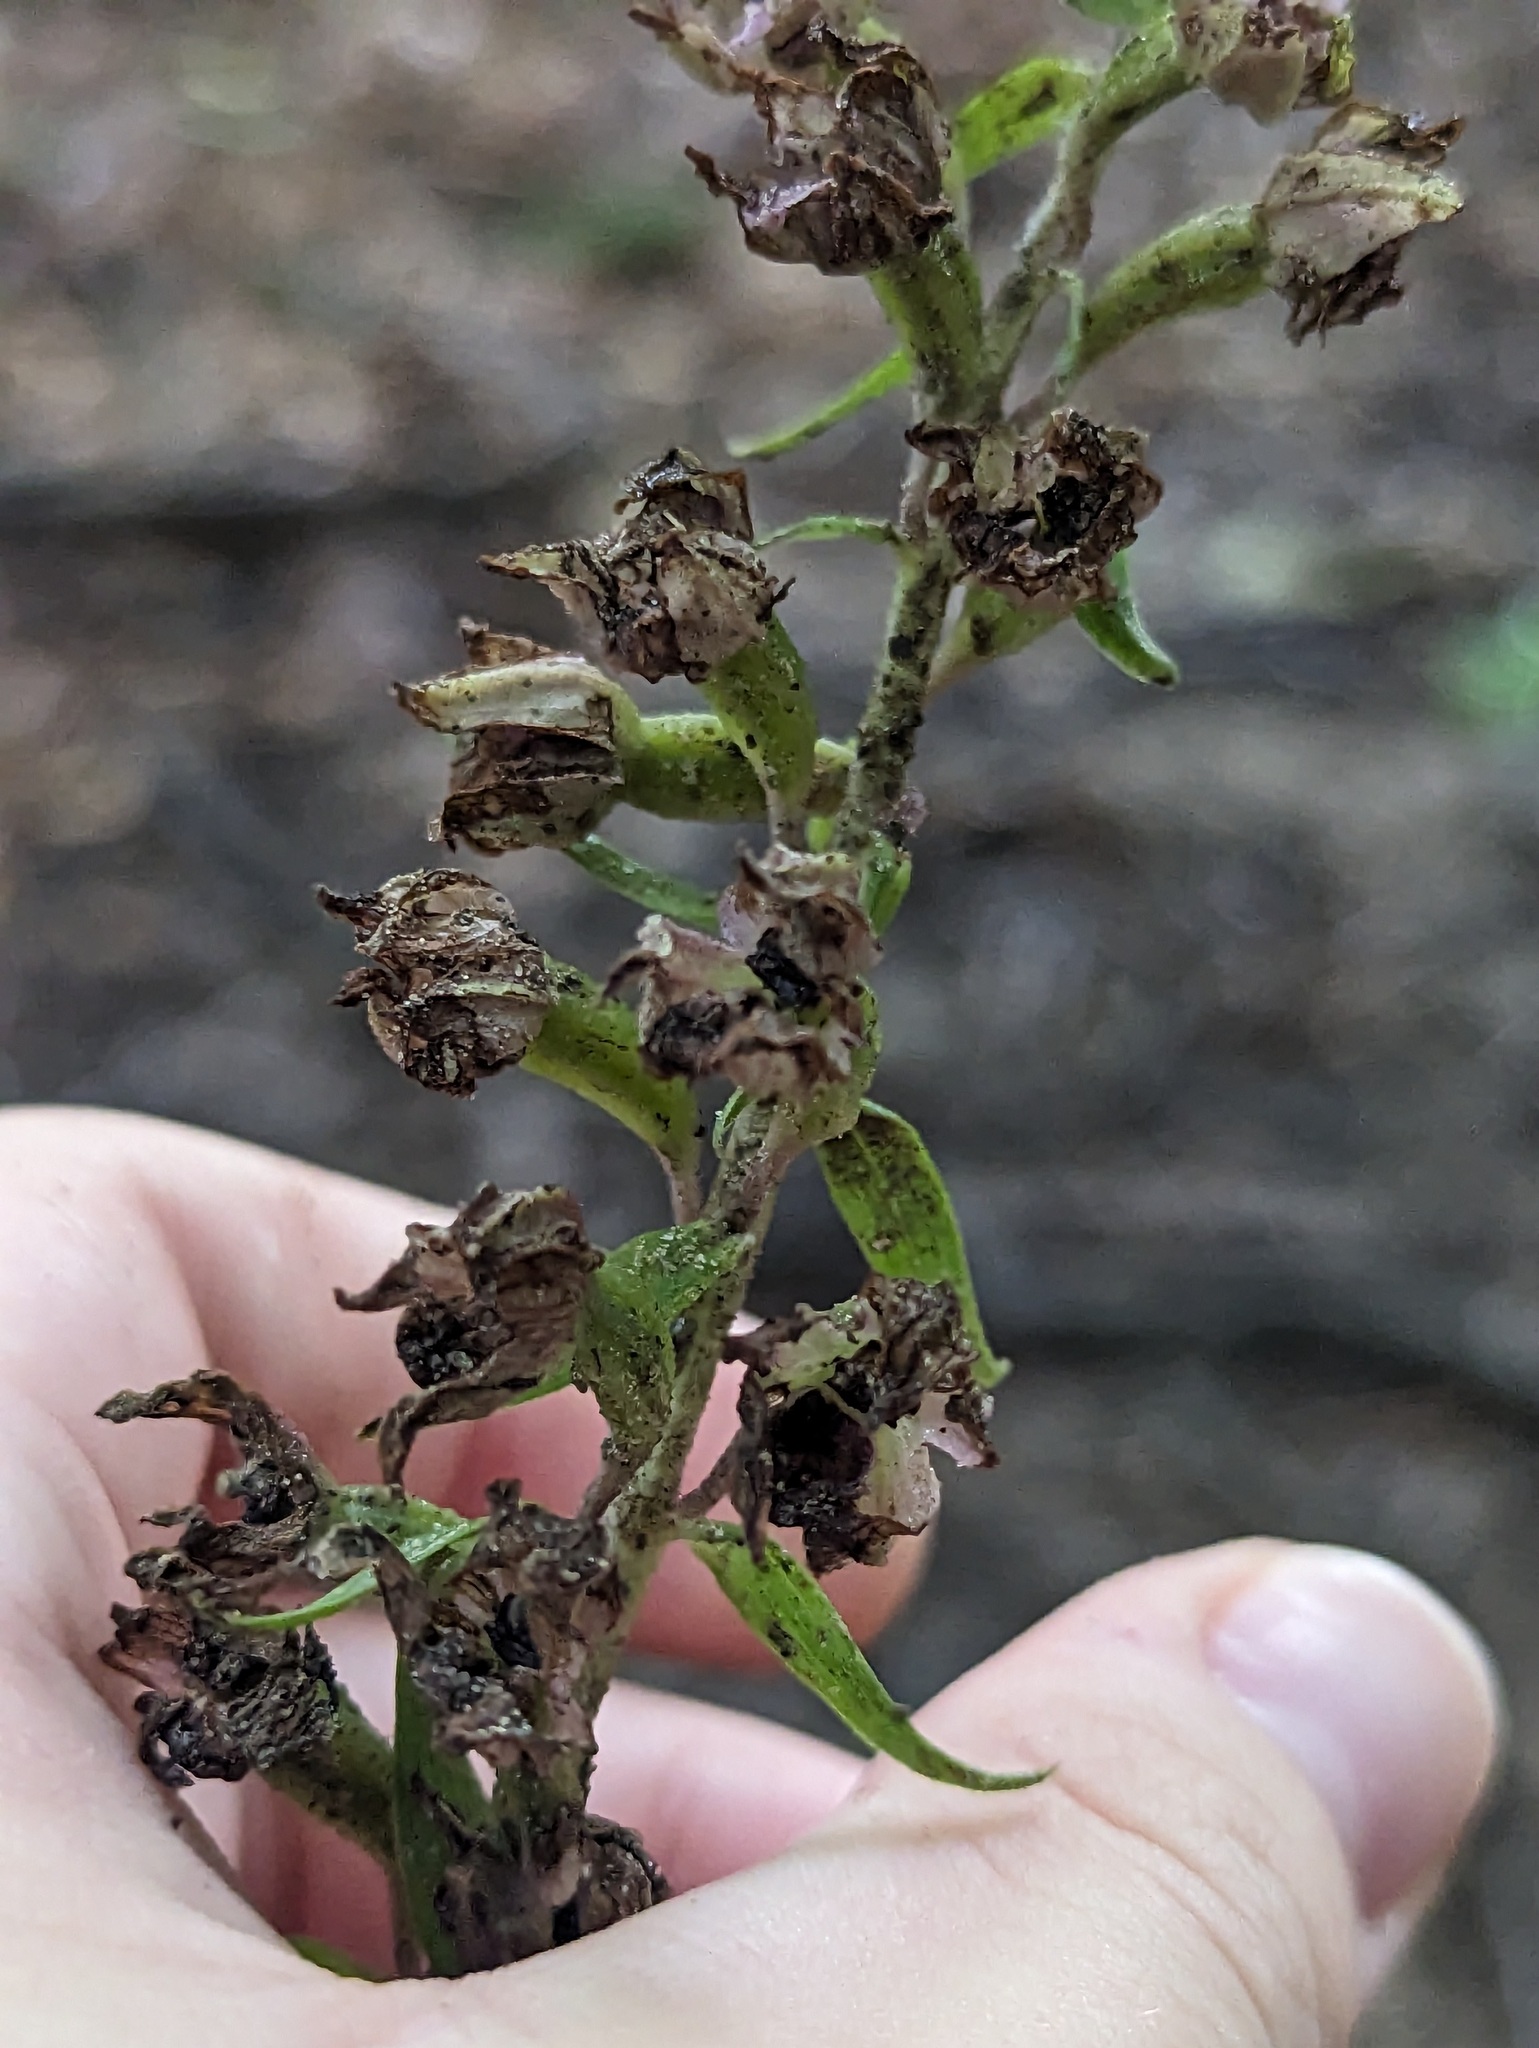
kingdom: Plantae
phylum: Tracheophyta
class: Liliopsida
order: Asparagales
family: Orchidaceae
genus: Epipactis
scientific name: Epipactis helleborine
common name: Broad-leaved helleborine
